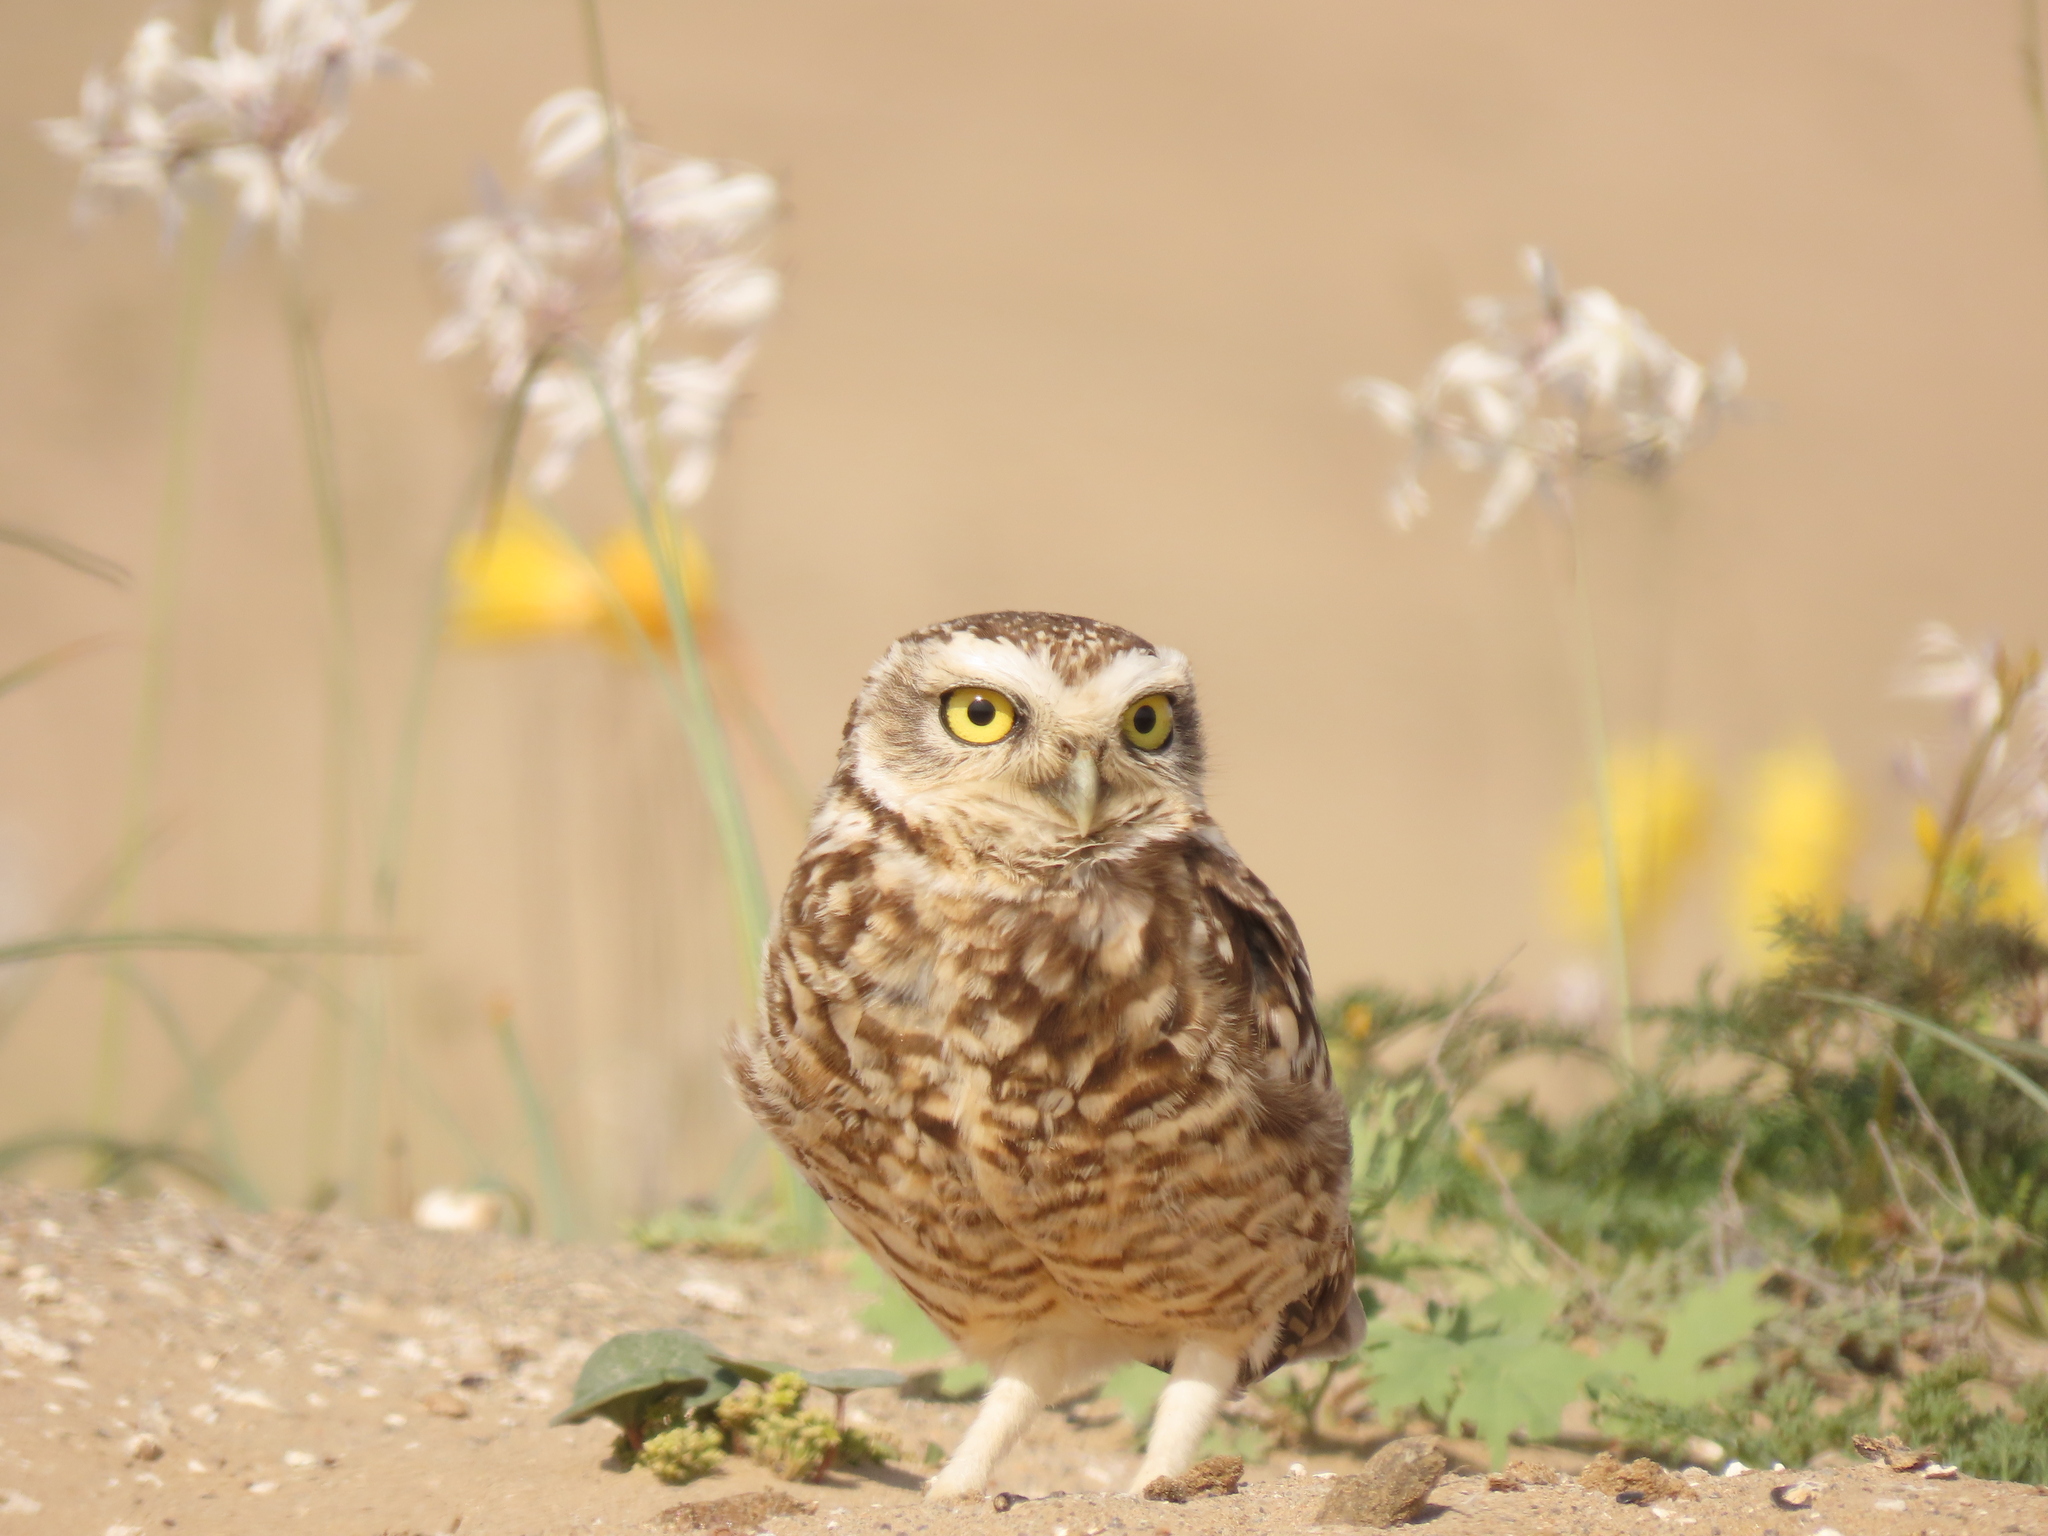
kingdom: Animalia
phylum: Chordata
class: Aves
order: Strigiformes
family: Strigidae
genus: Athene
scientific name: Athene cunicularia
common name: Burrowing owl
